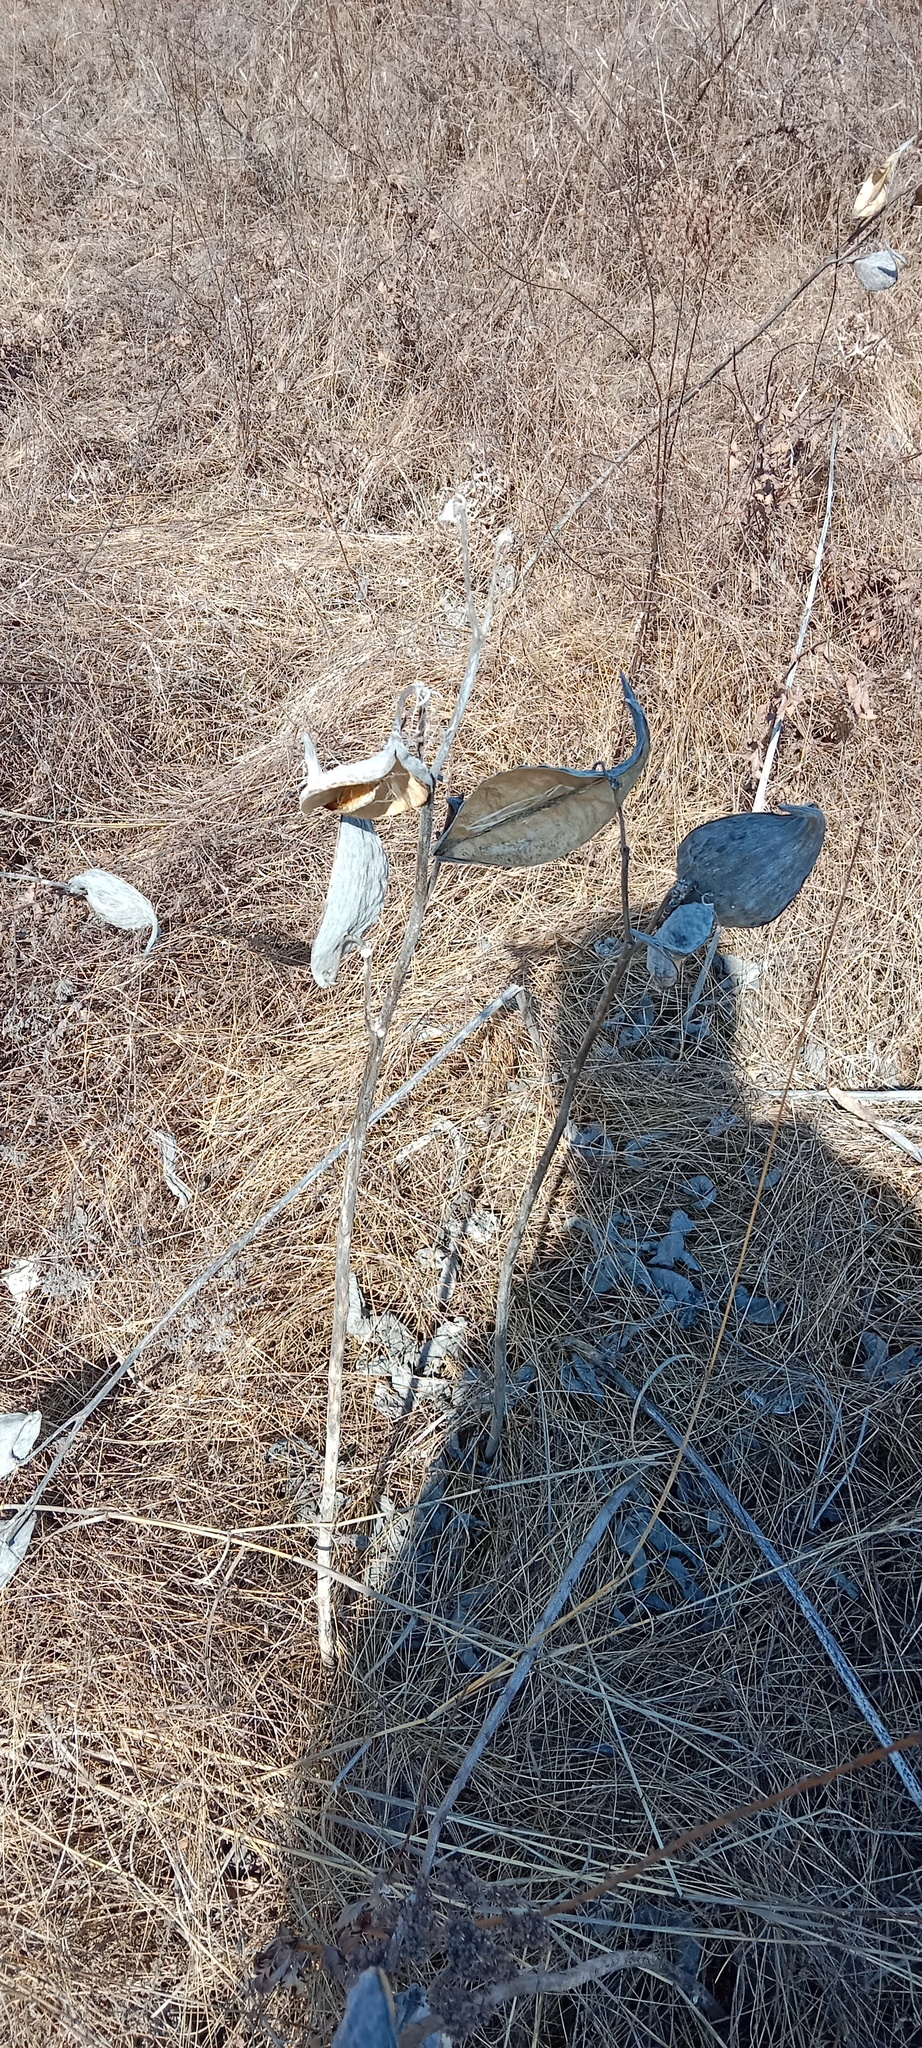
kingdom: Plantae
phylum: Tracheophyta
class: Magnoliopsida
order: Gentianales
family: Apocynaceae
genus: Asclepias
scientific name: Asclepias syriaca
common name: Common milkweed
